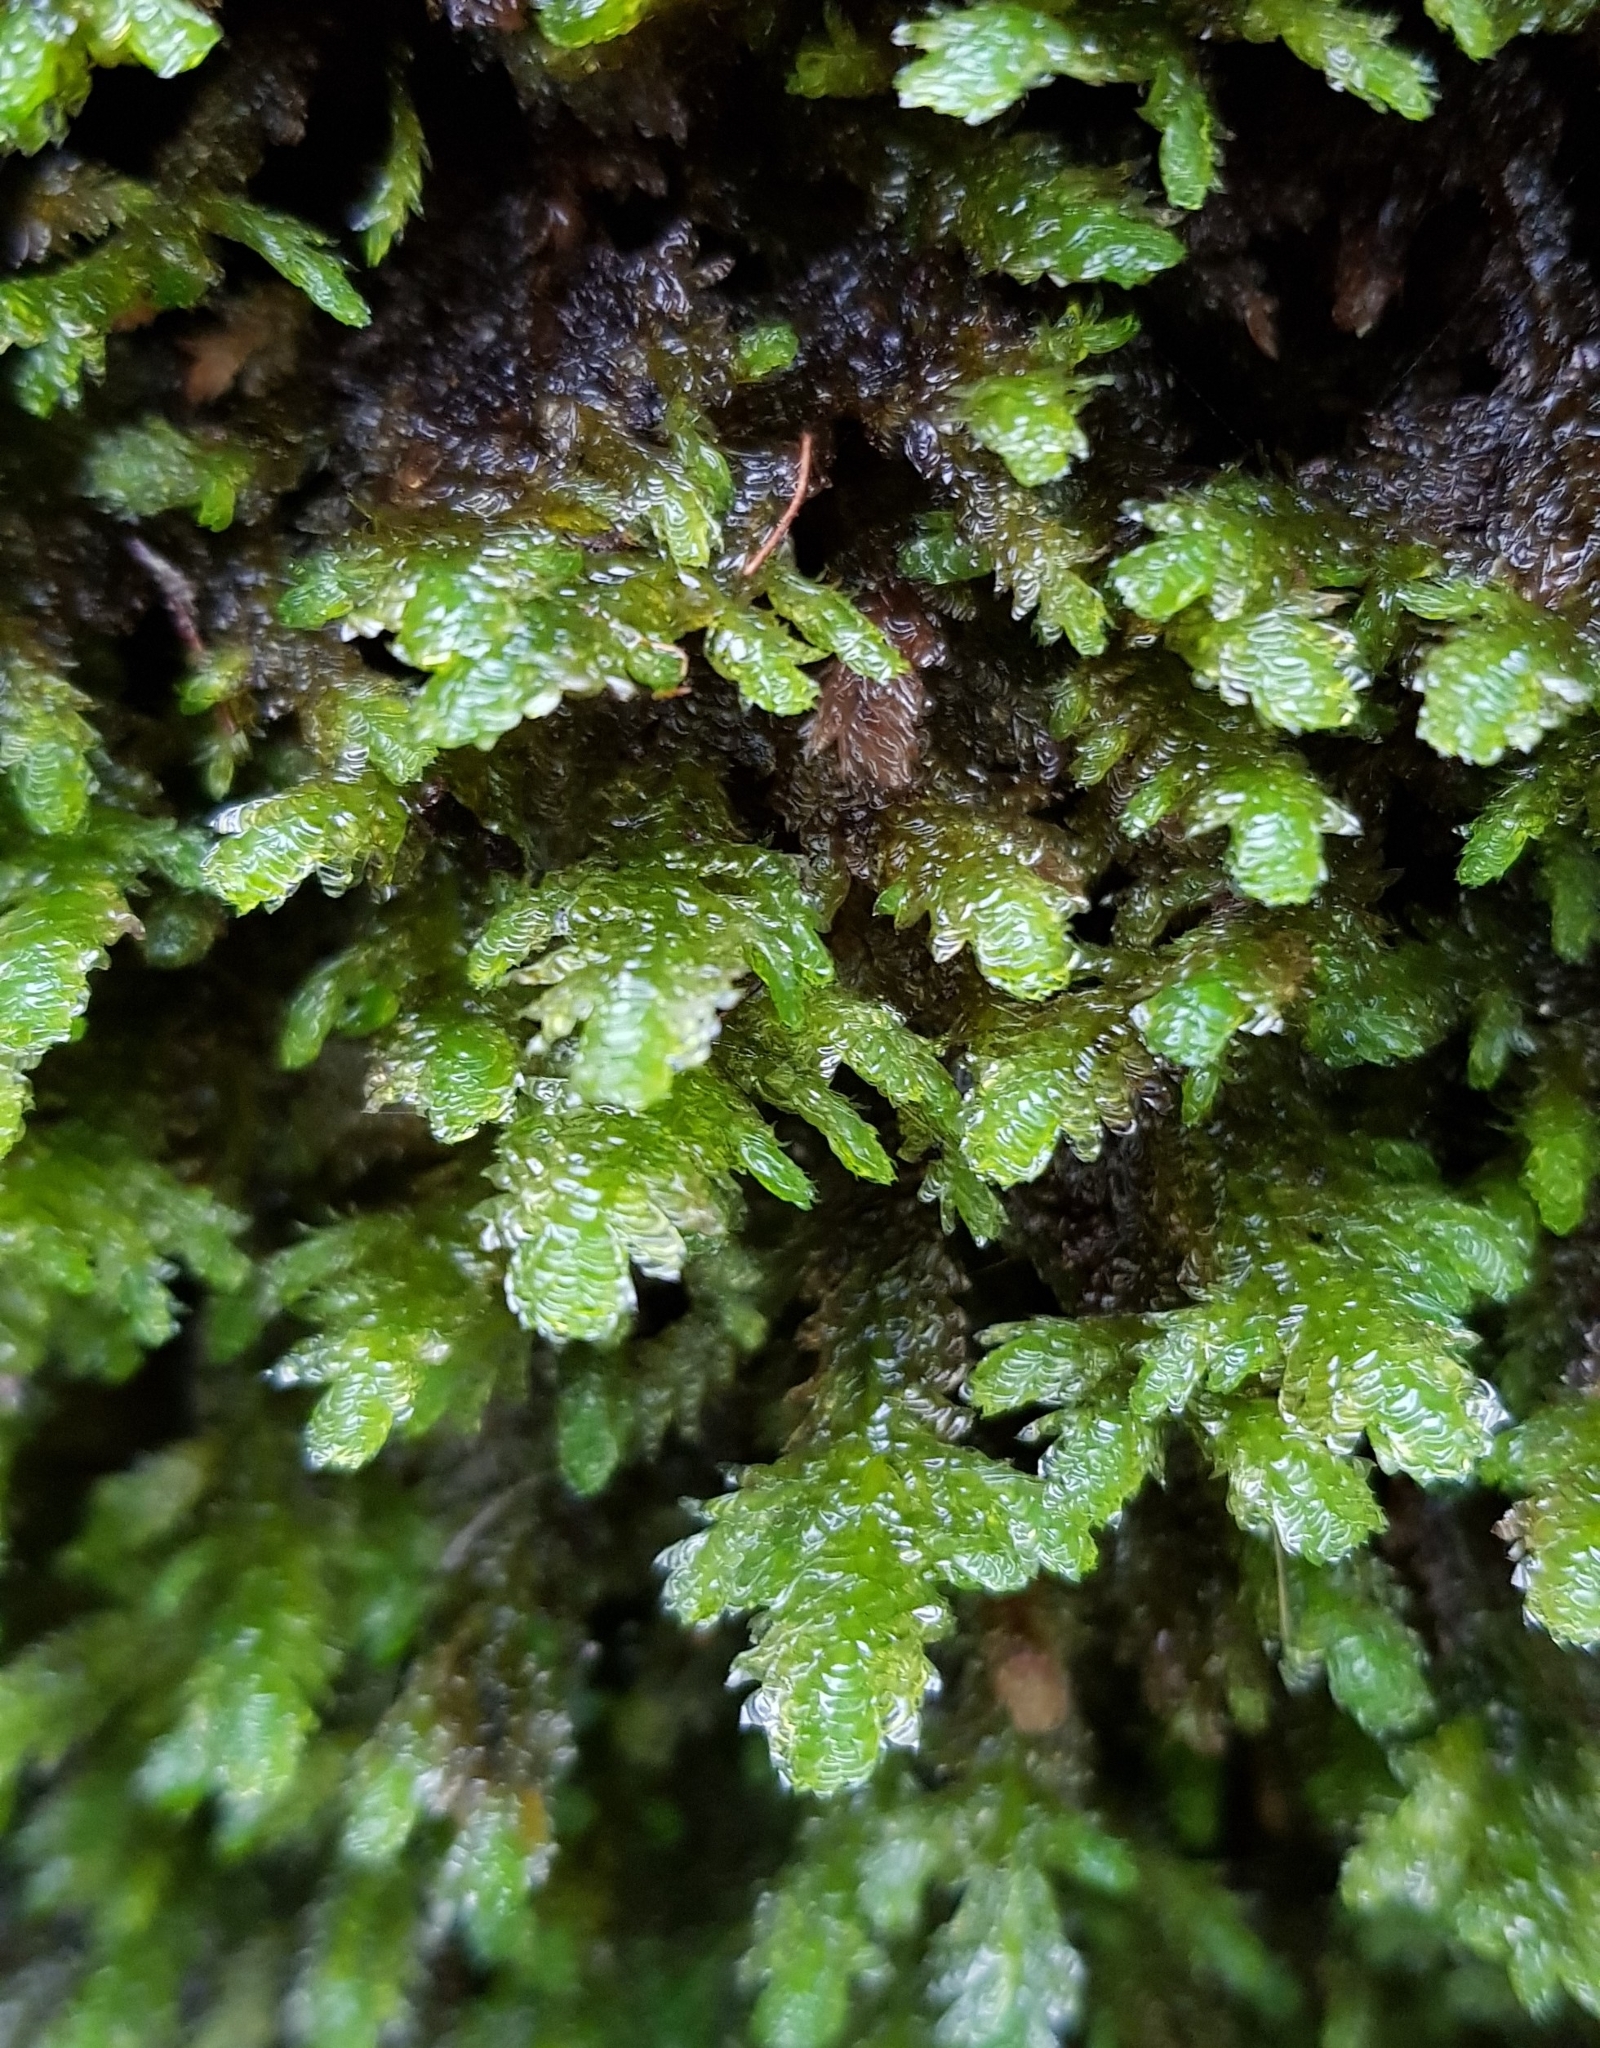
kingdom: Plantae
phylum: Bryophyta
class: Bryopsida
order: Hypnales
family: Neckeraceae
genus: Exsertotheca
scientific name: Exsertotheca crispa
